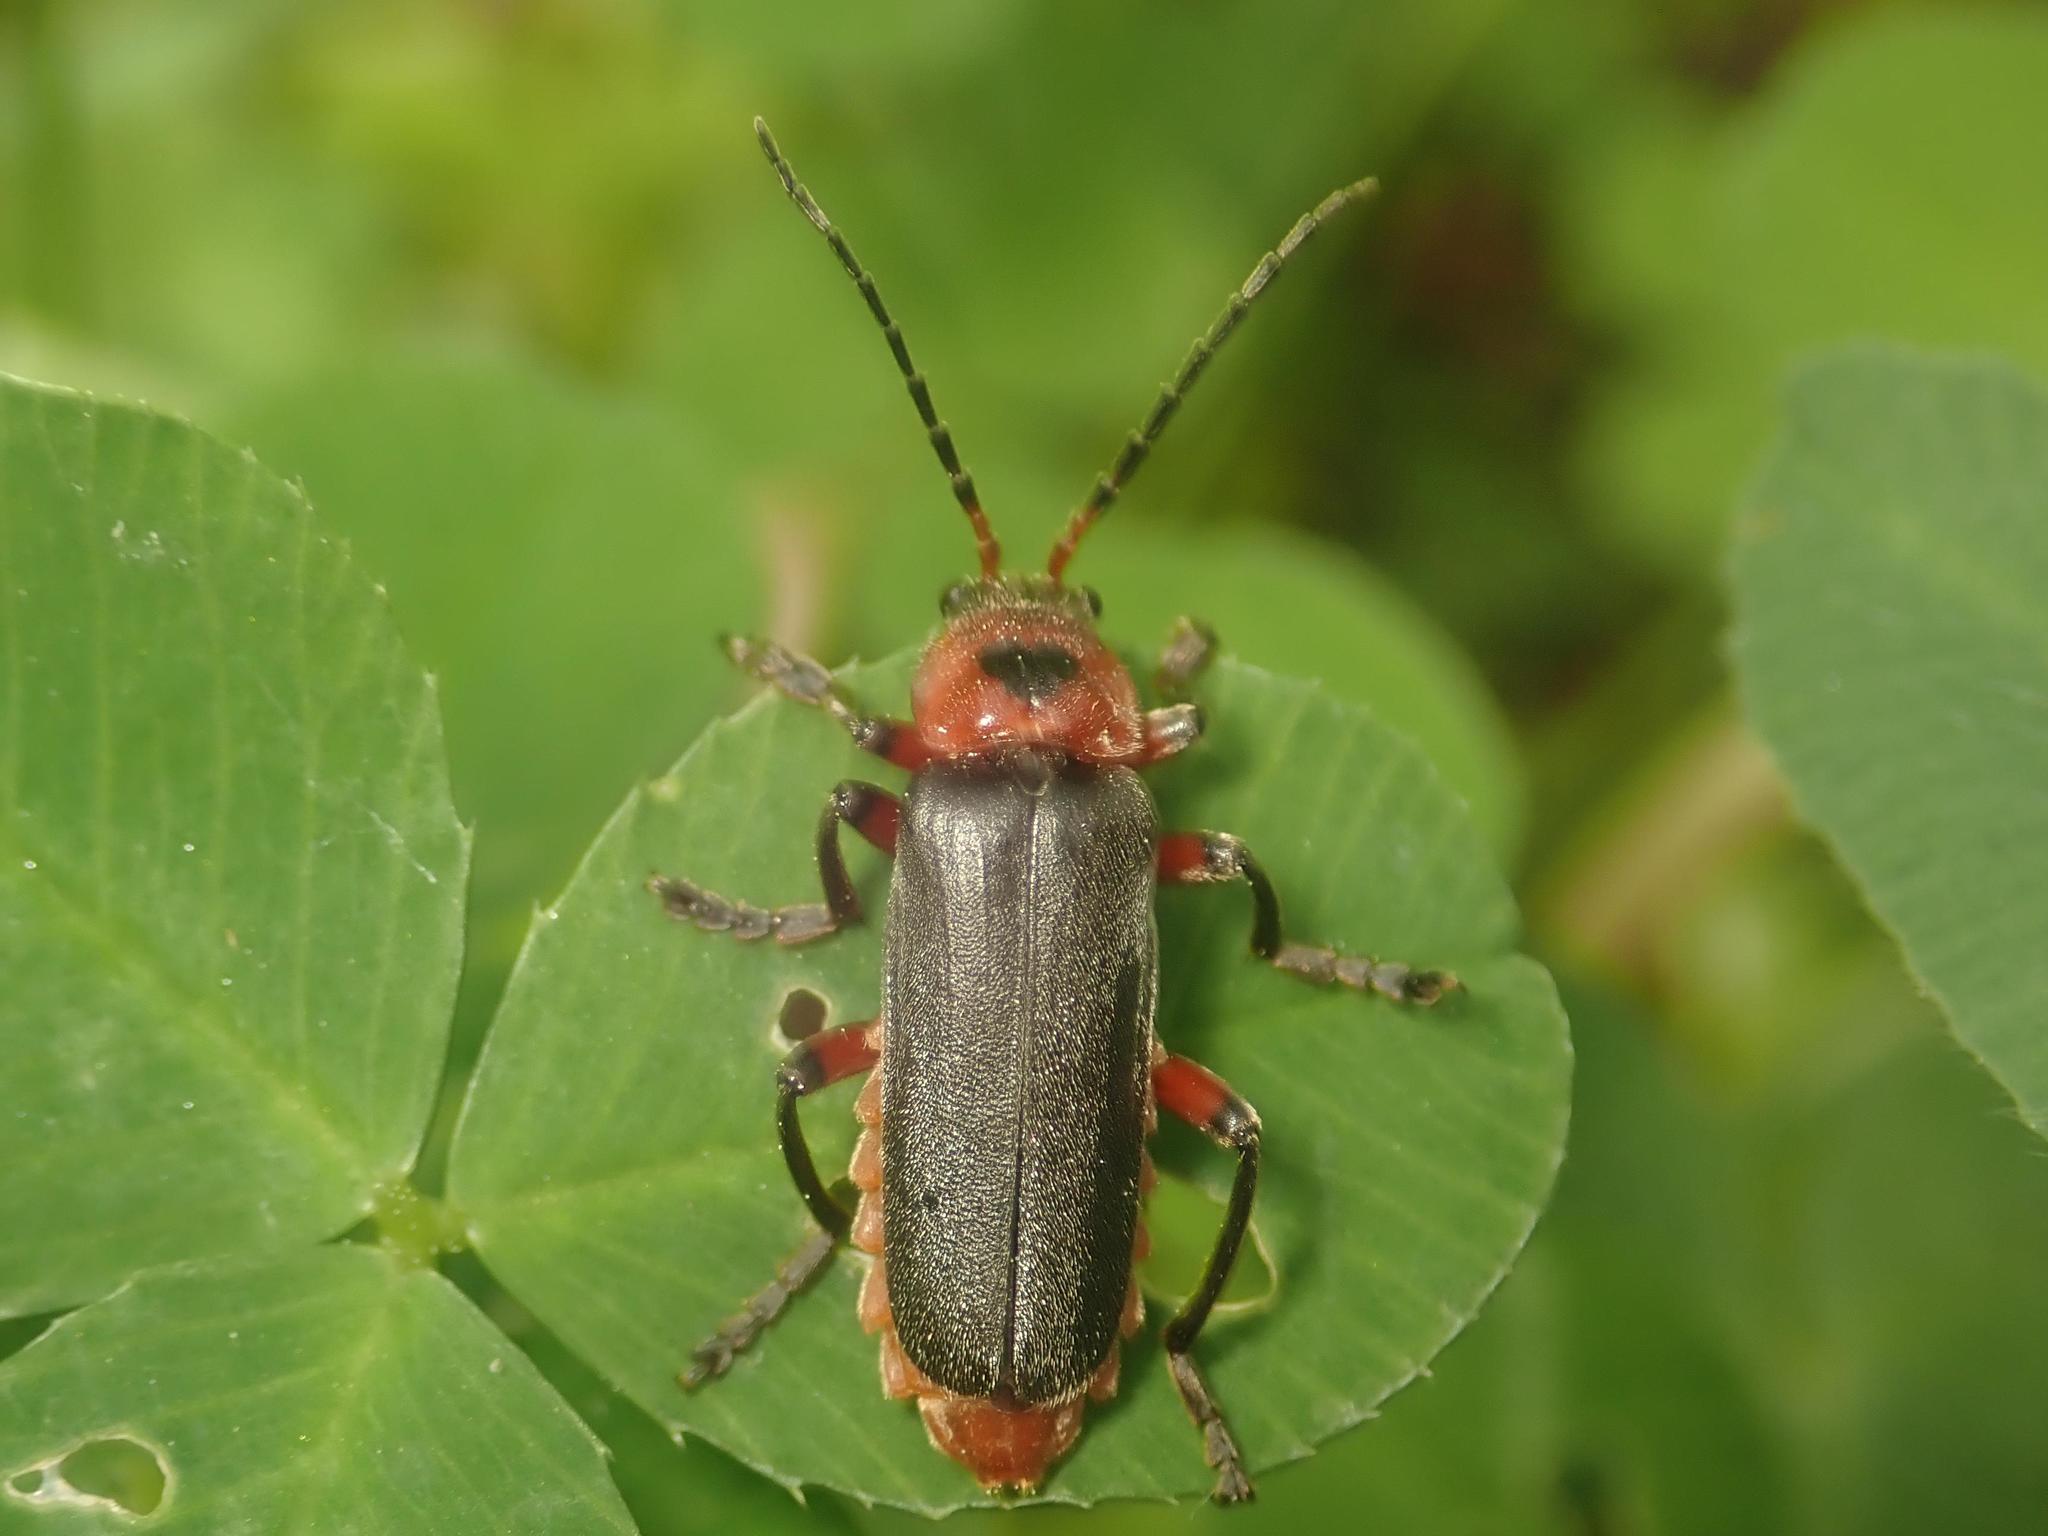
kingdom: Animalia
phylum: Arthropoda
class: Insecta
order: Coleoptera
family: Cantharidae
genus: Cantharis
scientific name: Cantharis rustica
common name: Soldier beetle
